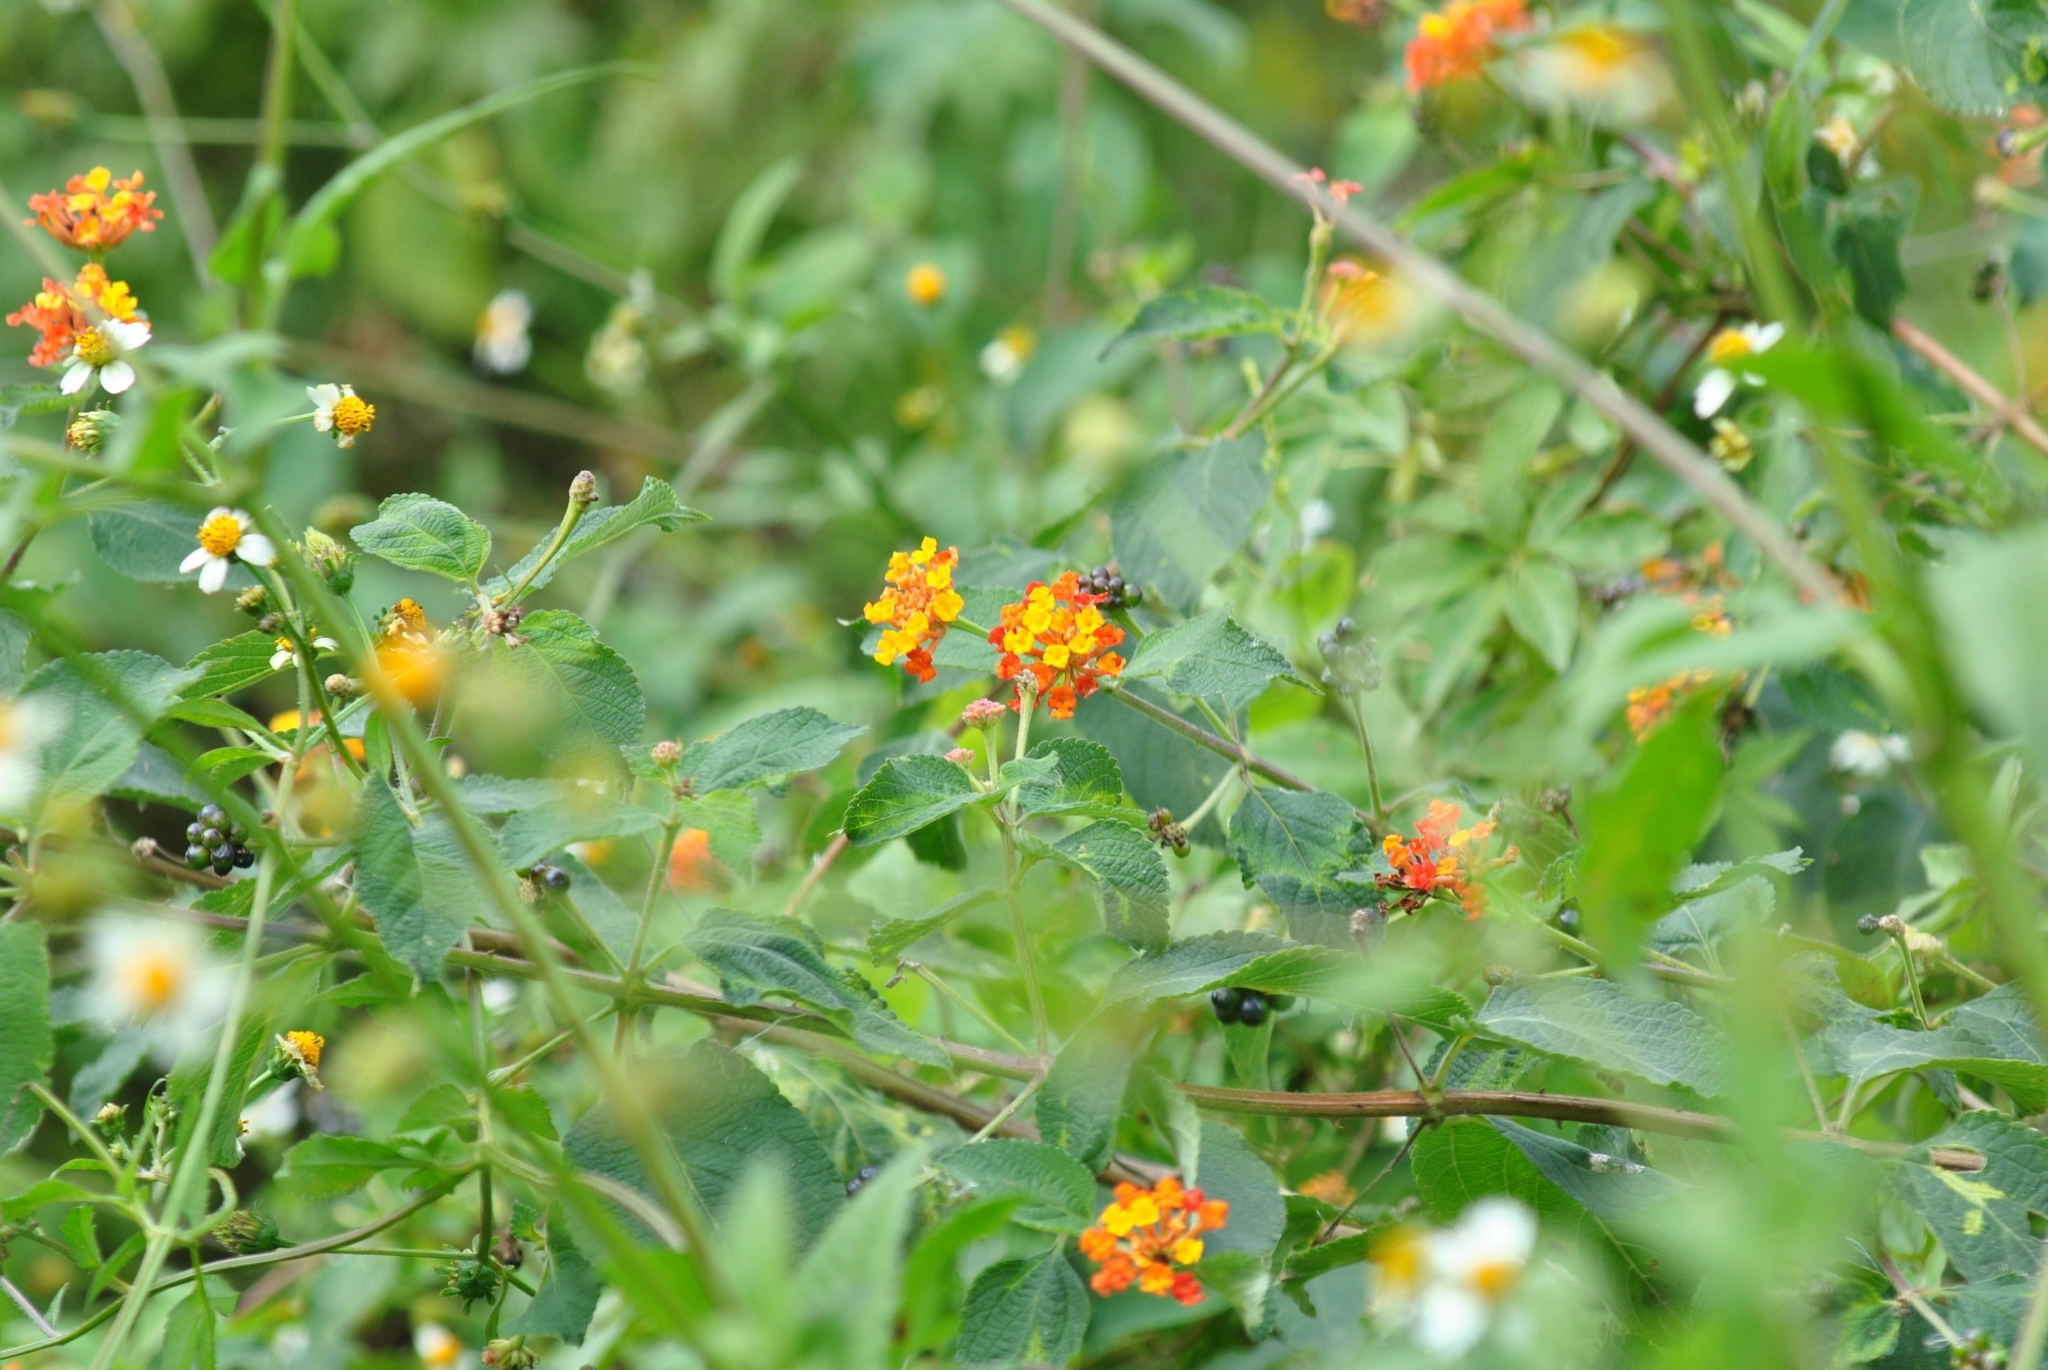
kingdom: Plantae
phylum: Tracheophyta
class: Magnoliopsida
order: Lamiales
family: Verbenaceae
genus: Lantana
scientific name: Lantana camara
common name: Lantana
